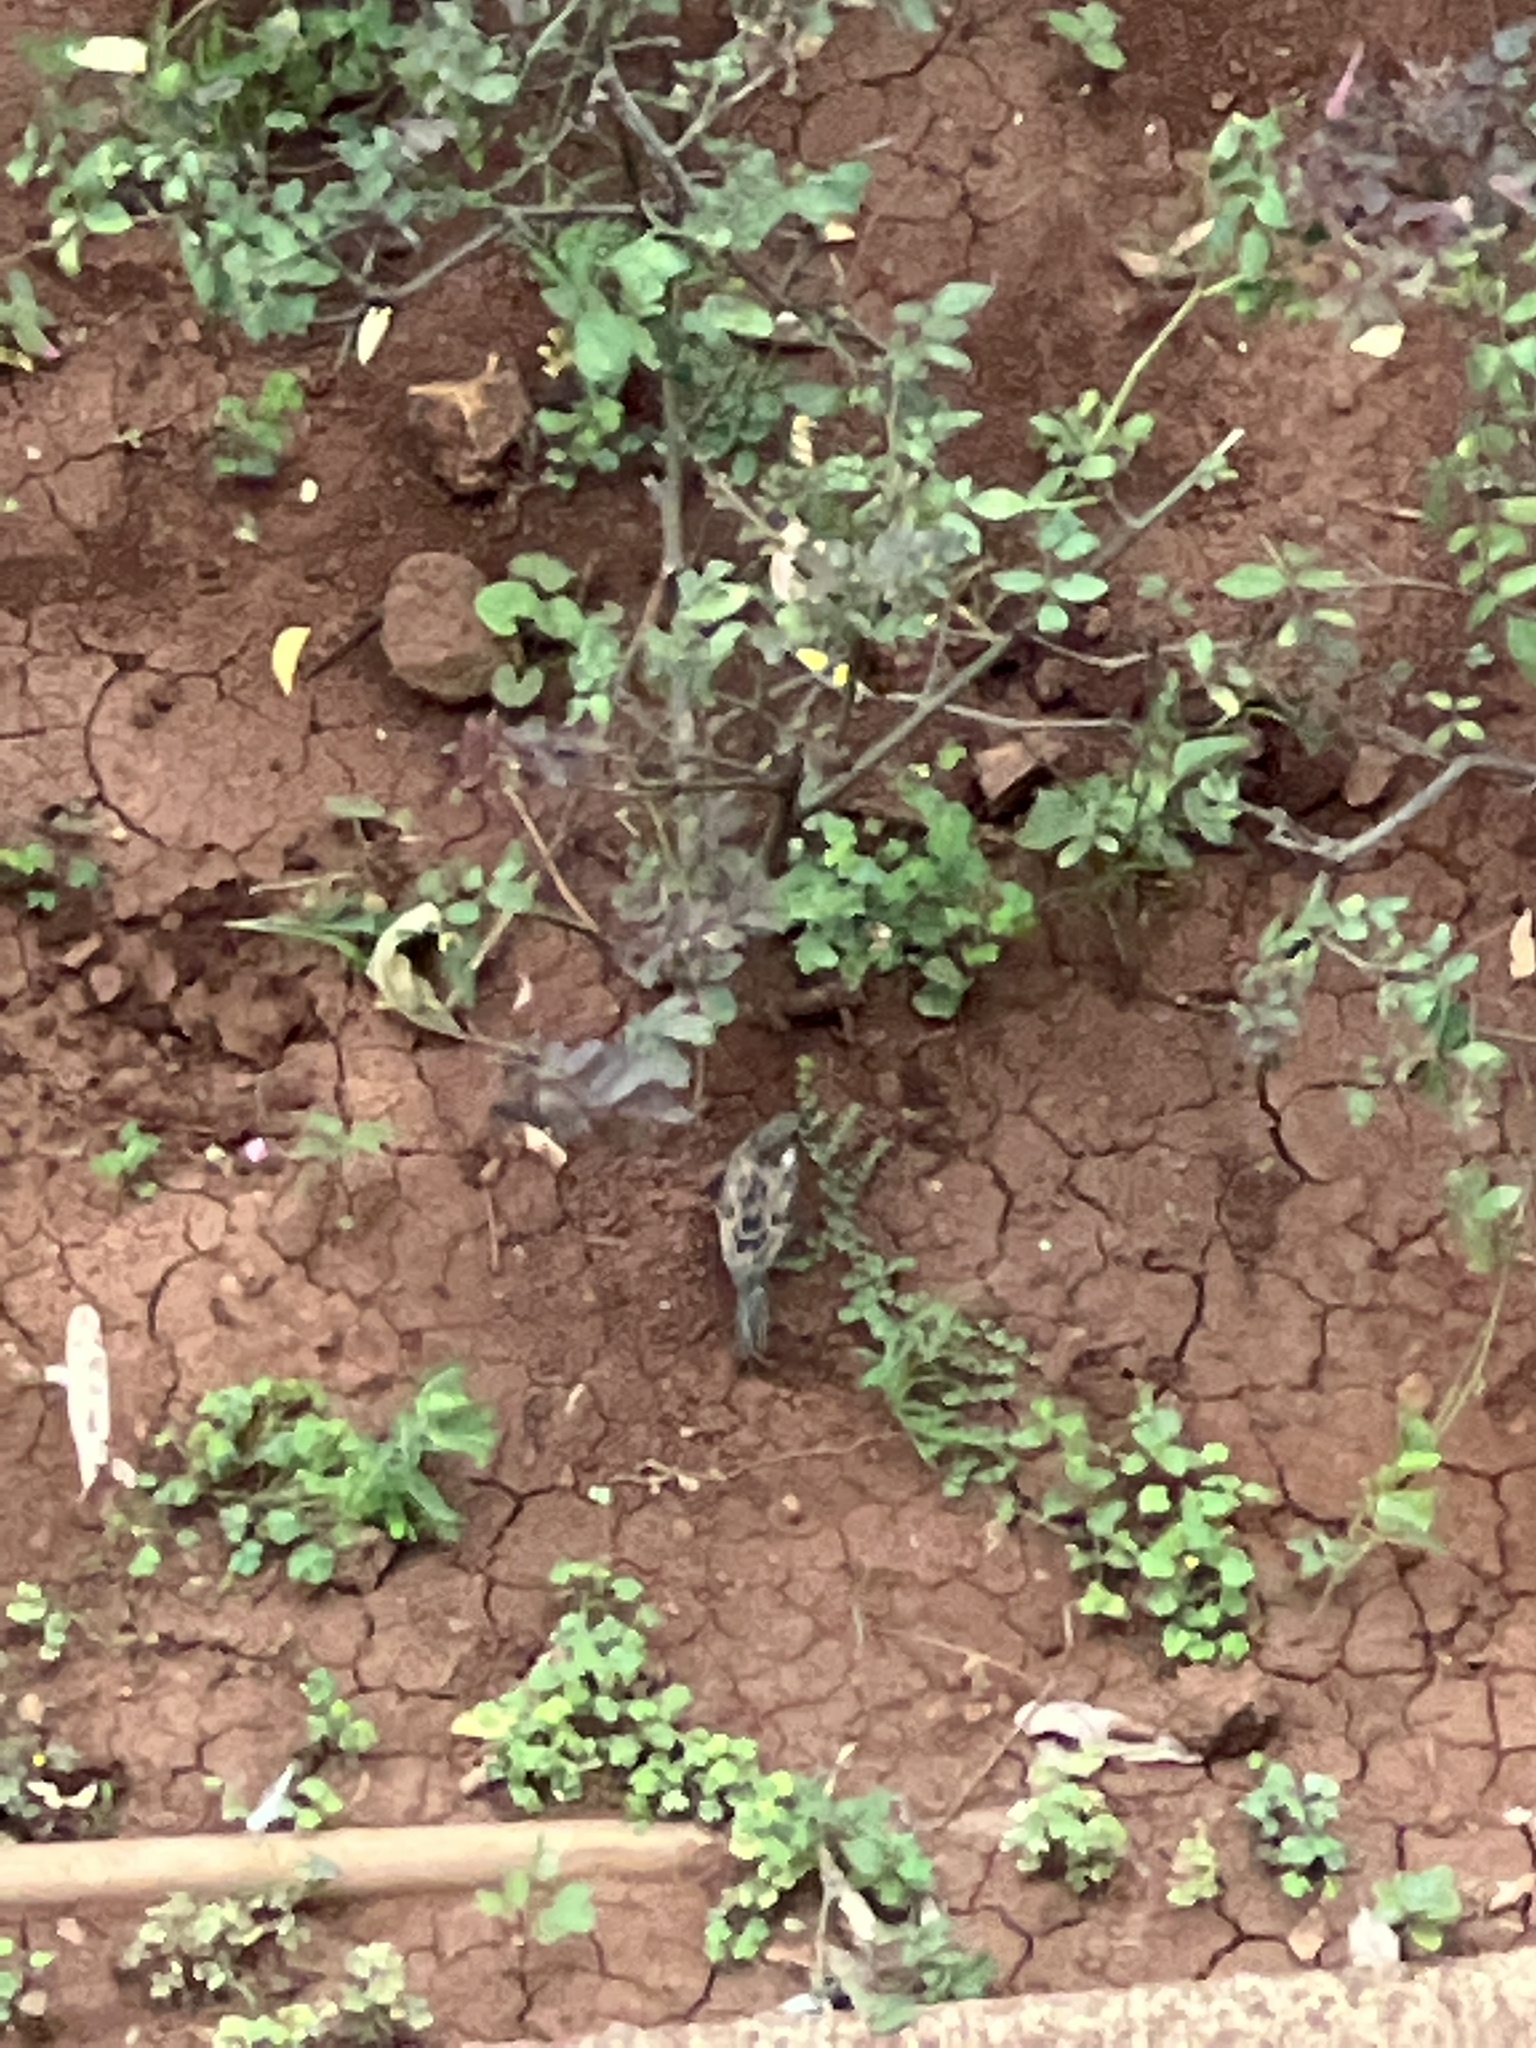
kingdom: Animalia
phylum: Chordata
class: Aves
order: Passeriformes
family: Passeridae
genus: Passer
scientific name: Passer domesticus
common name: House sparrow
